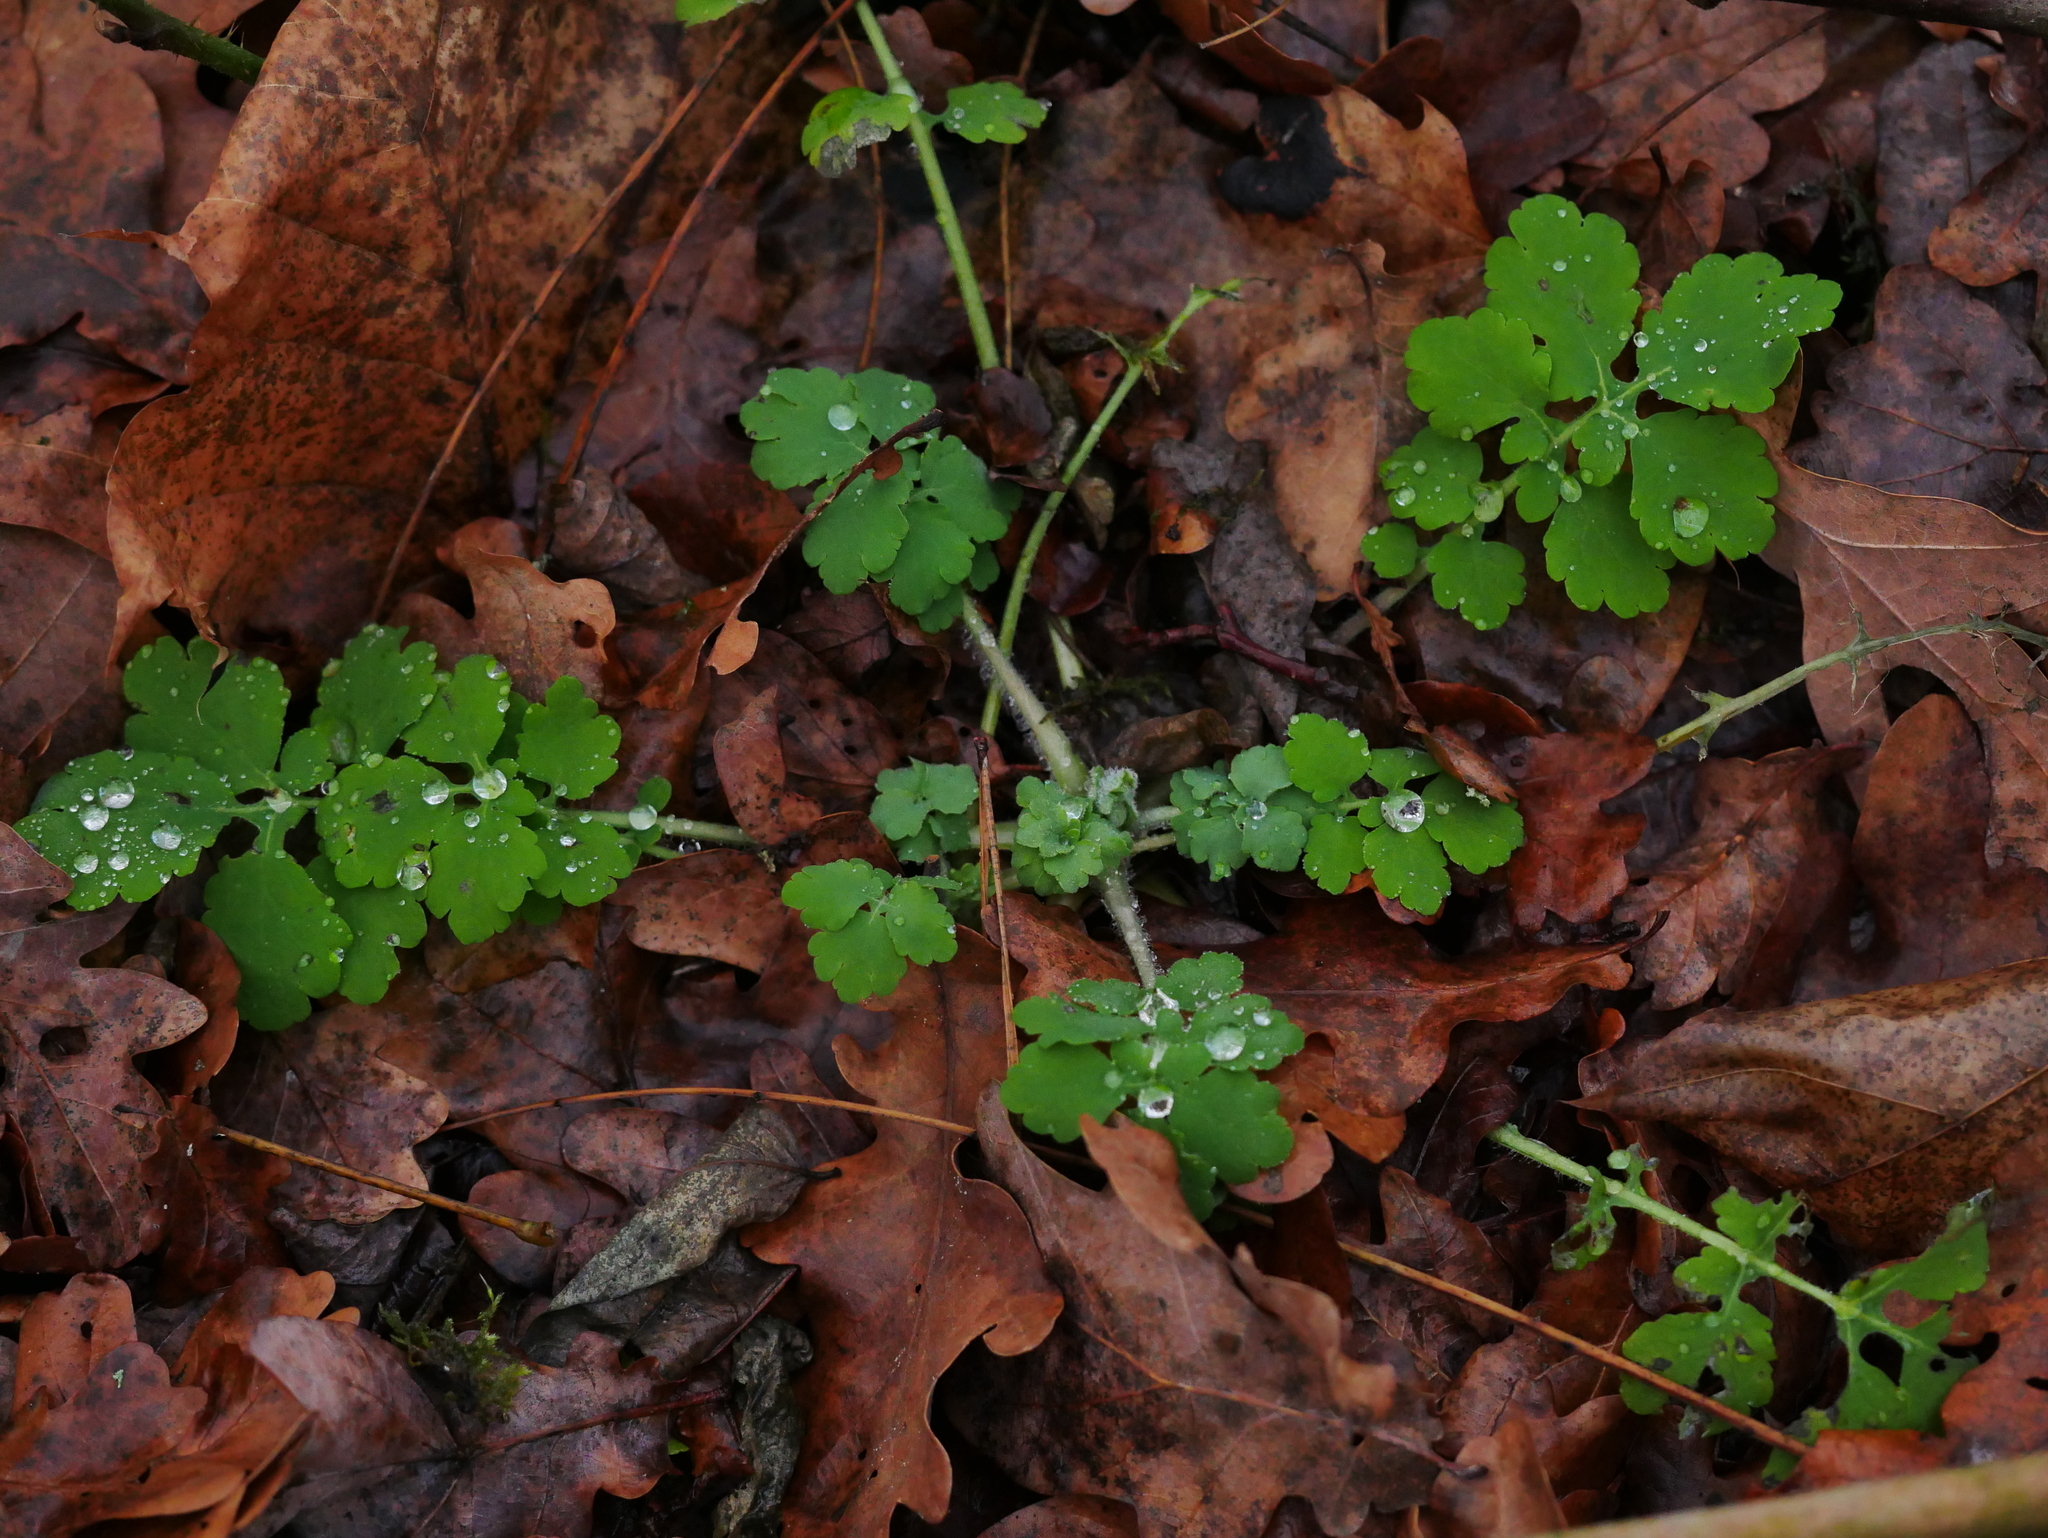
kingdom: Plantae
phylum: Tracheophyta
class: Magnoliopsida
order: Ranunculales
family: Papaveraceae
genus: Chelidonium
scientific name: Chelidonium majus
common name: Greater celandine
